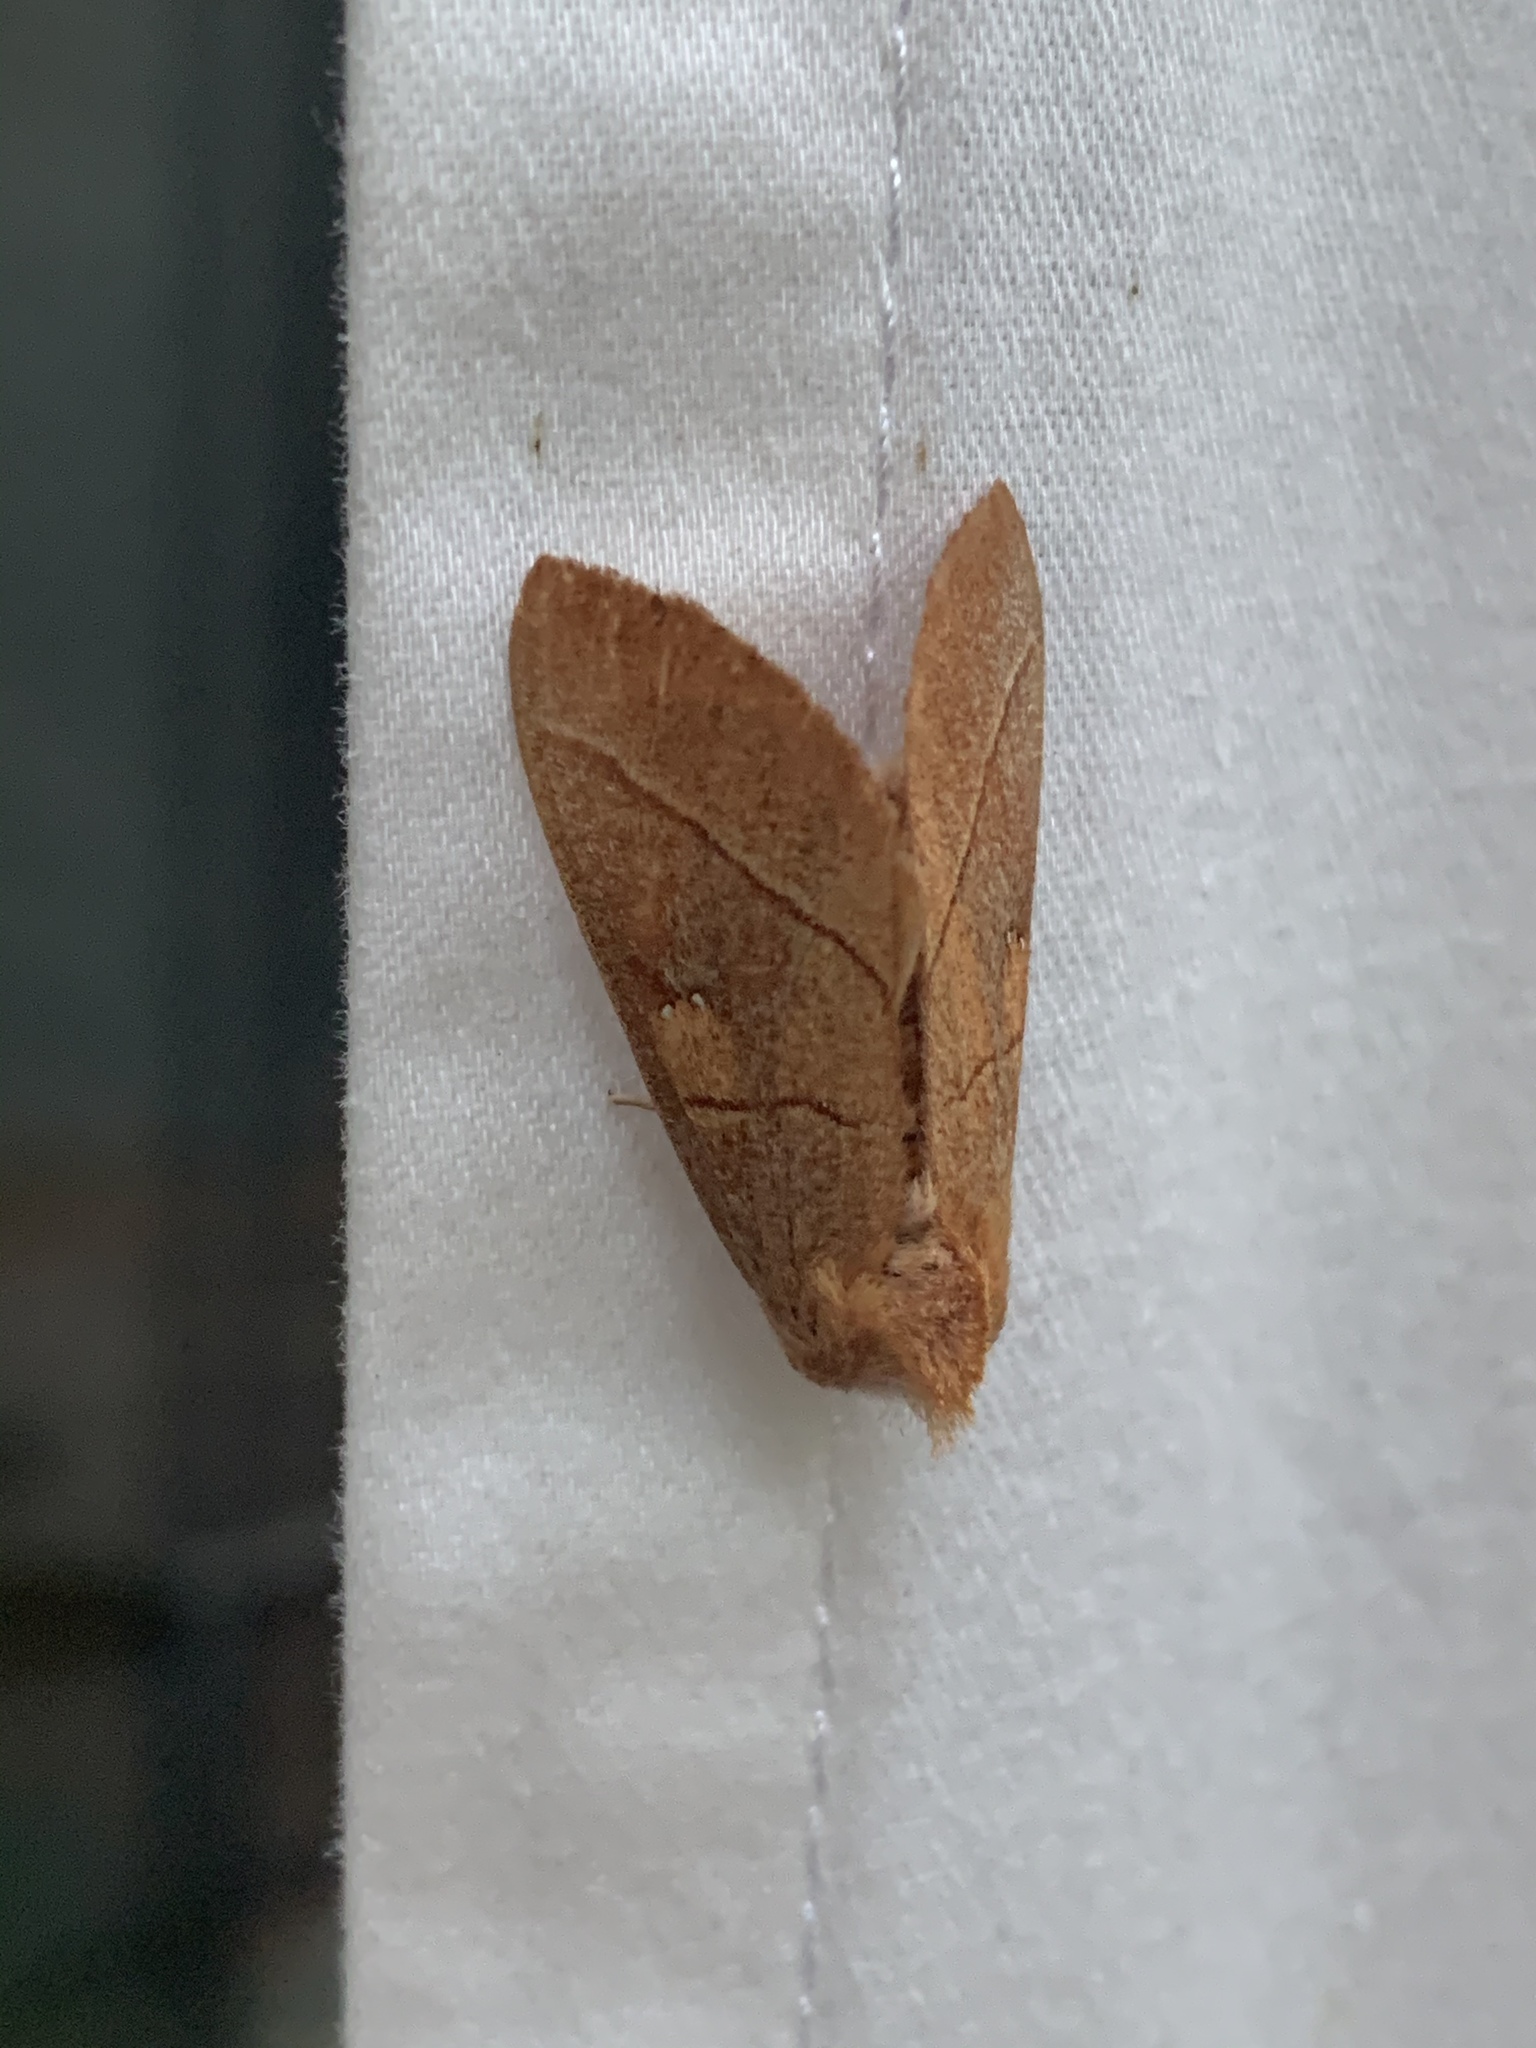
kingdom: Animalia
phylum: Arthropoda
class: Insecta
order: Lepidoptera
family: Notodontidae
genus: Nadata
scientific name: Nadata gibbosa
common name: White-dotted prominent
